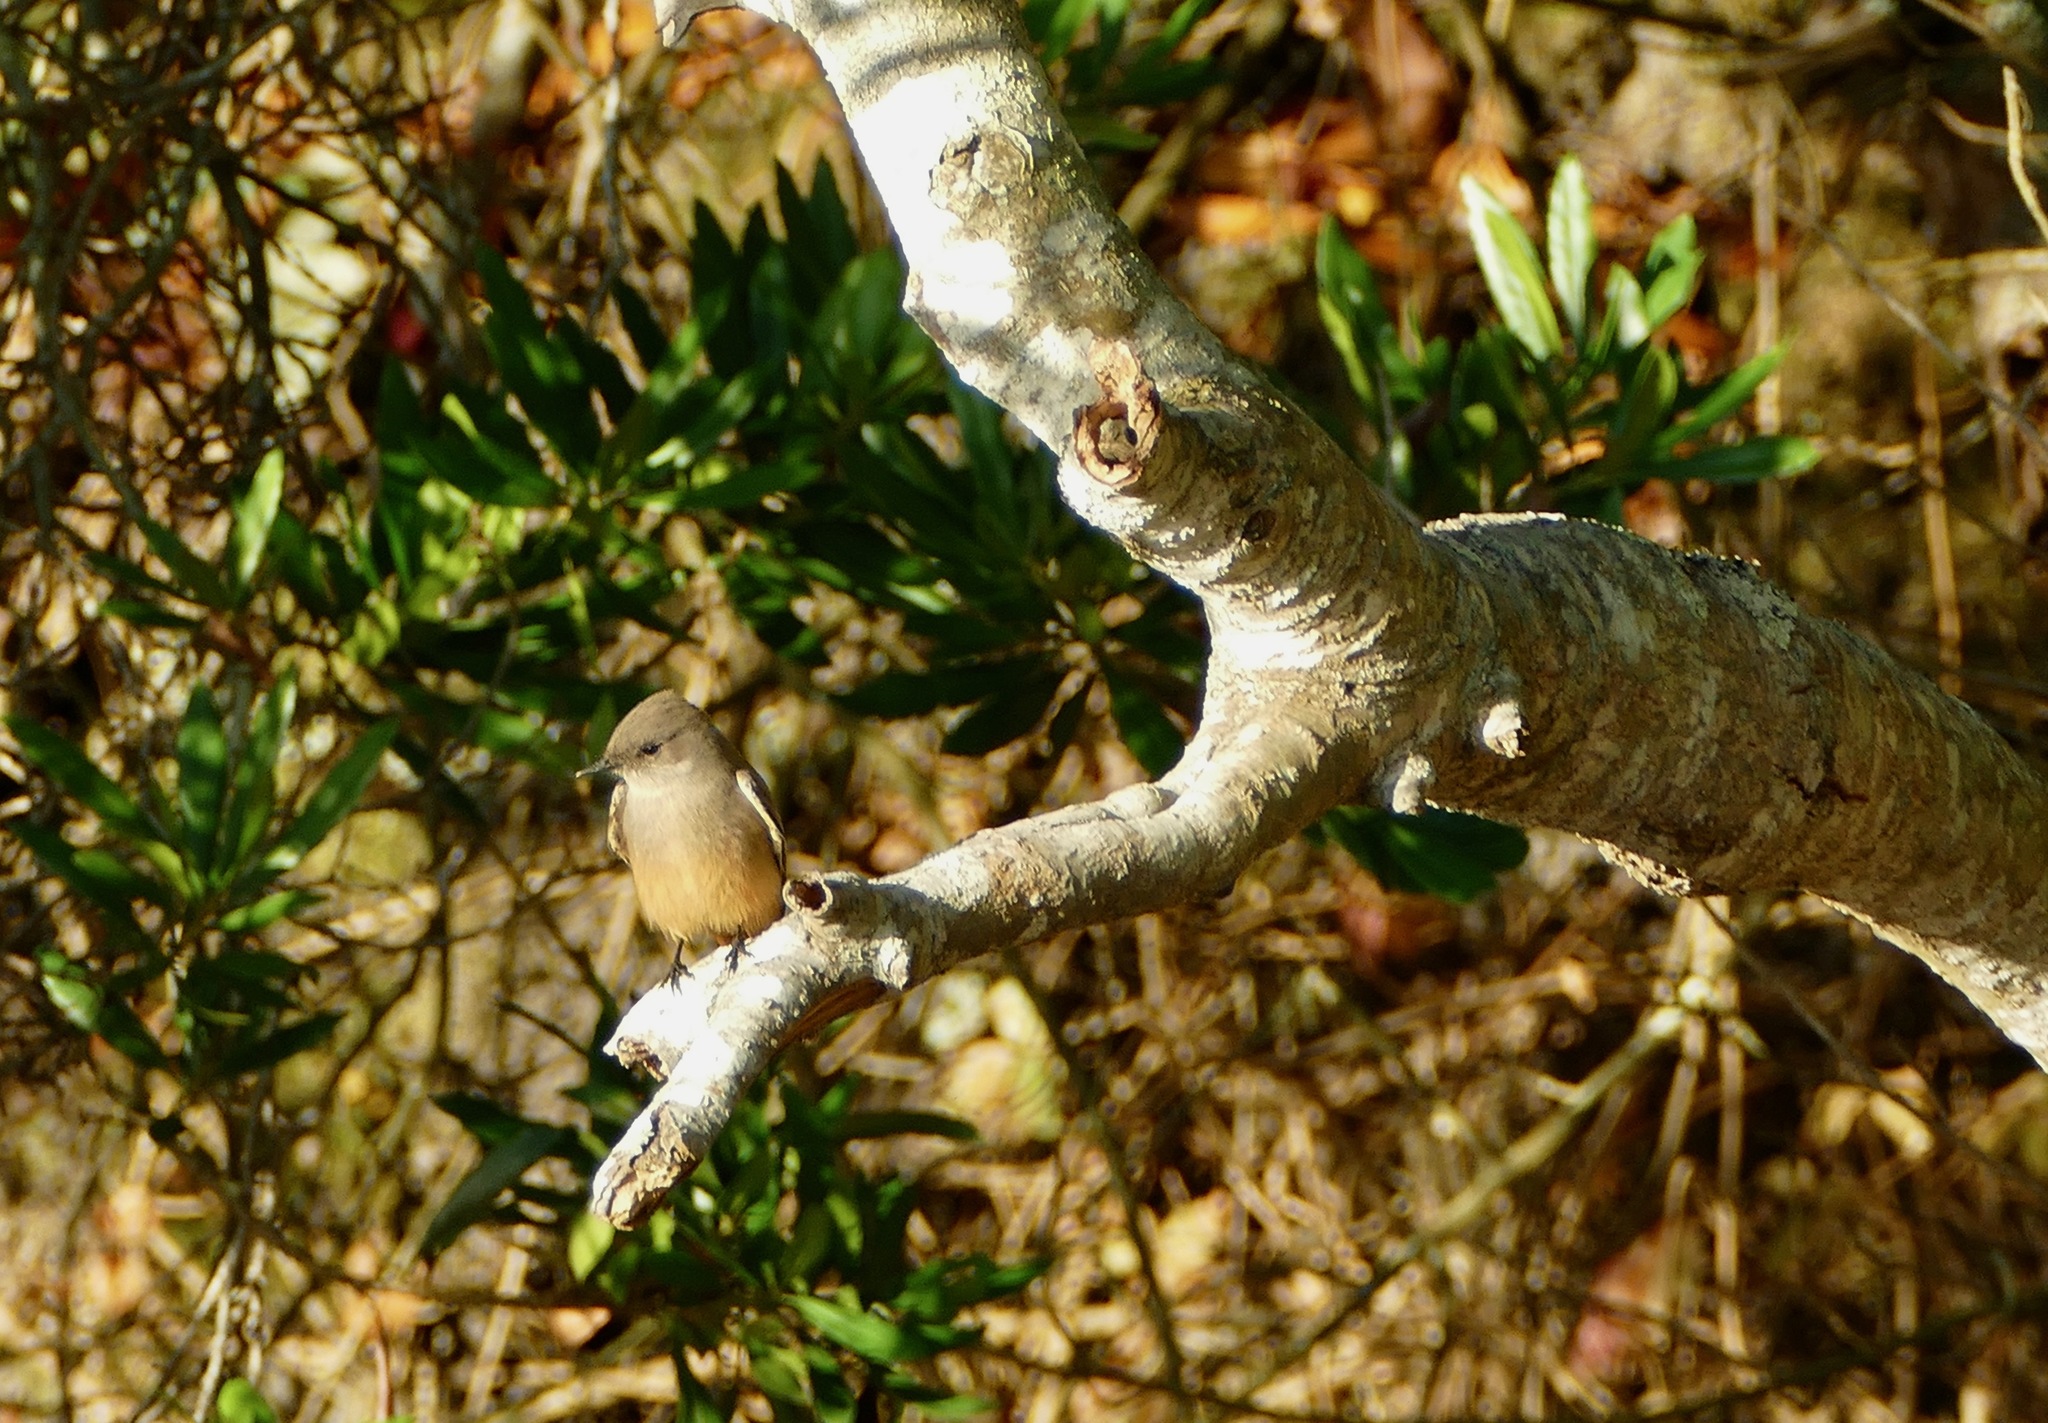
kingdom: Animalia
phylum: Chordata
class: Aves
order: Passeriformes
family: Tyrannidae
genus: Sayornis
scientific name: Sayornis saya
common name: Say's phoebe
